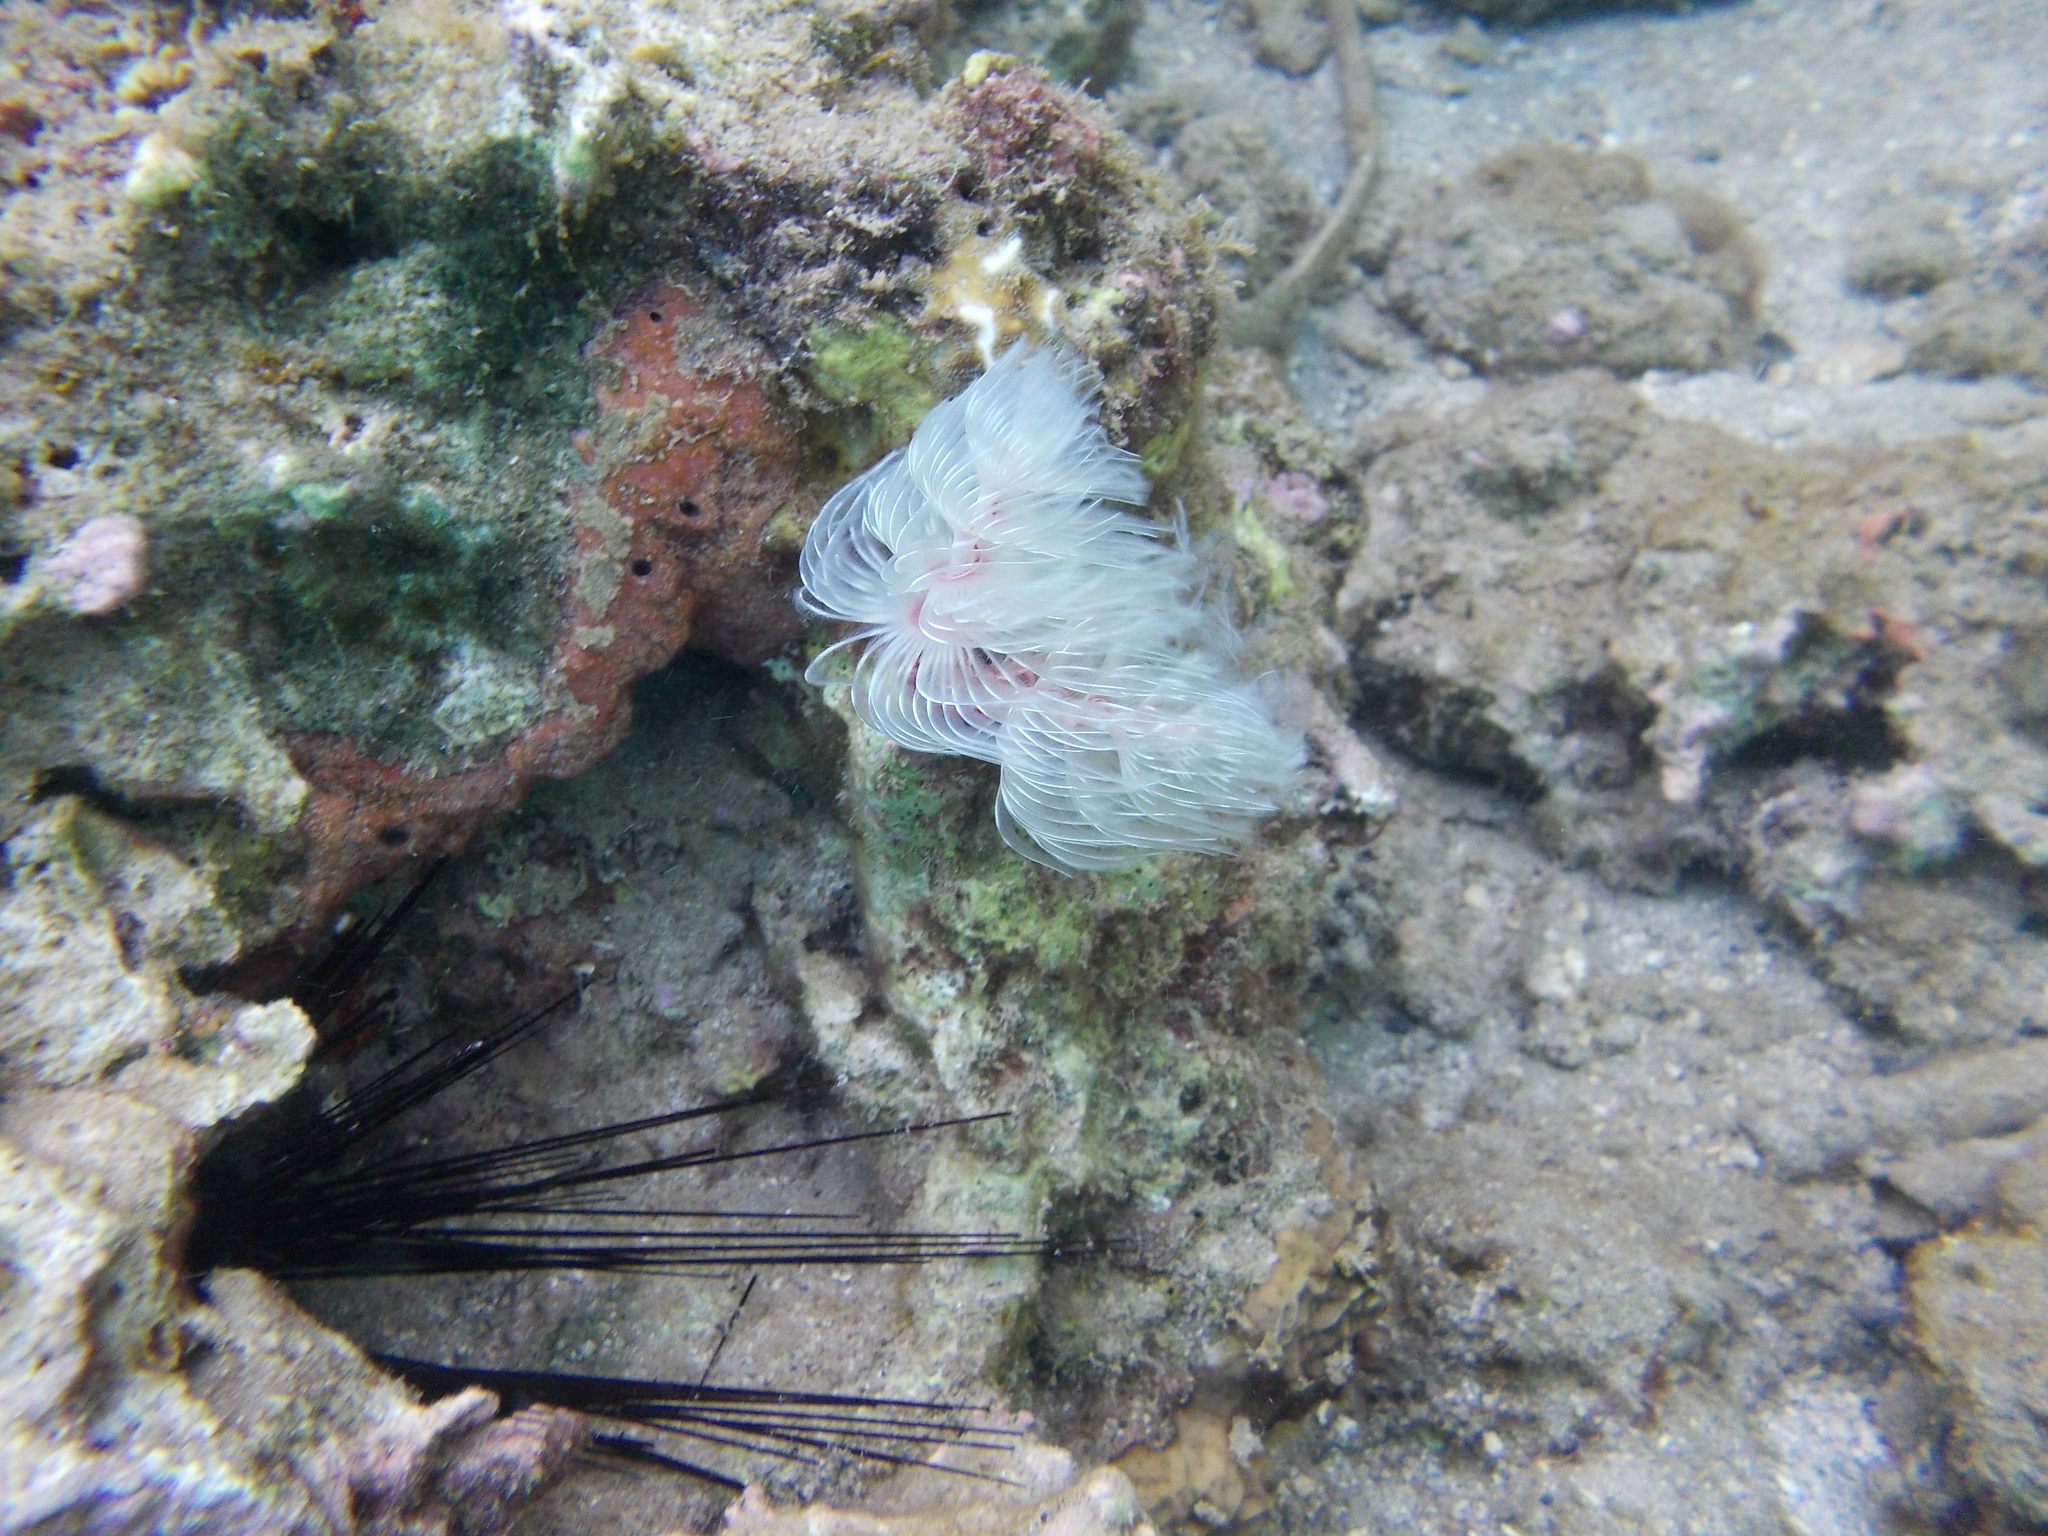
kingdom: Animalia
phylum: Annelida
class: Polychaeta
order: Sabellida
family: Serpulidae
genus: Protula
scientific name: Protula bispiralis
